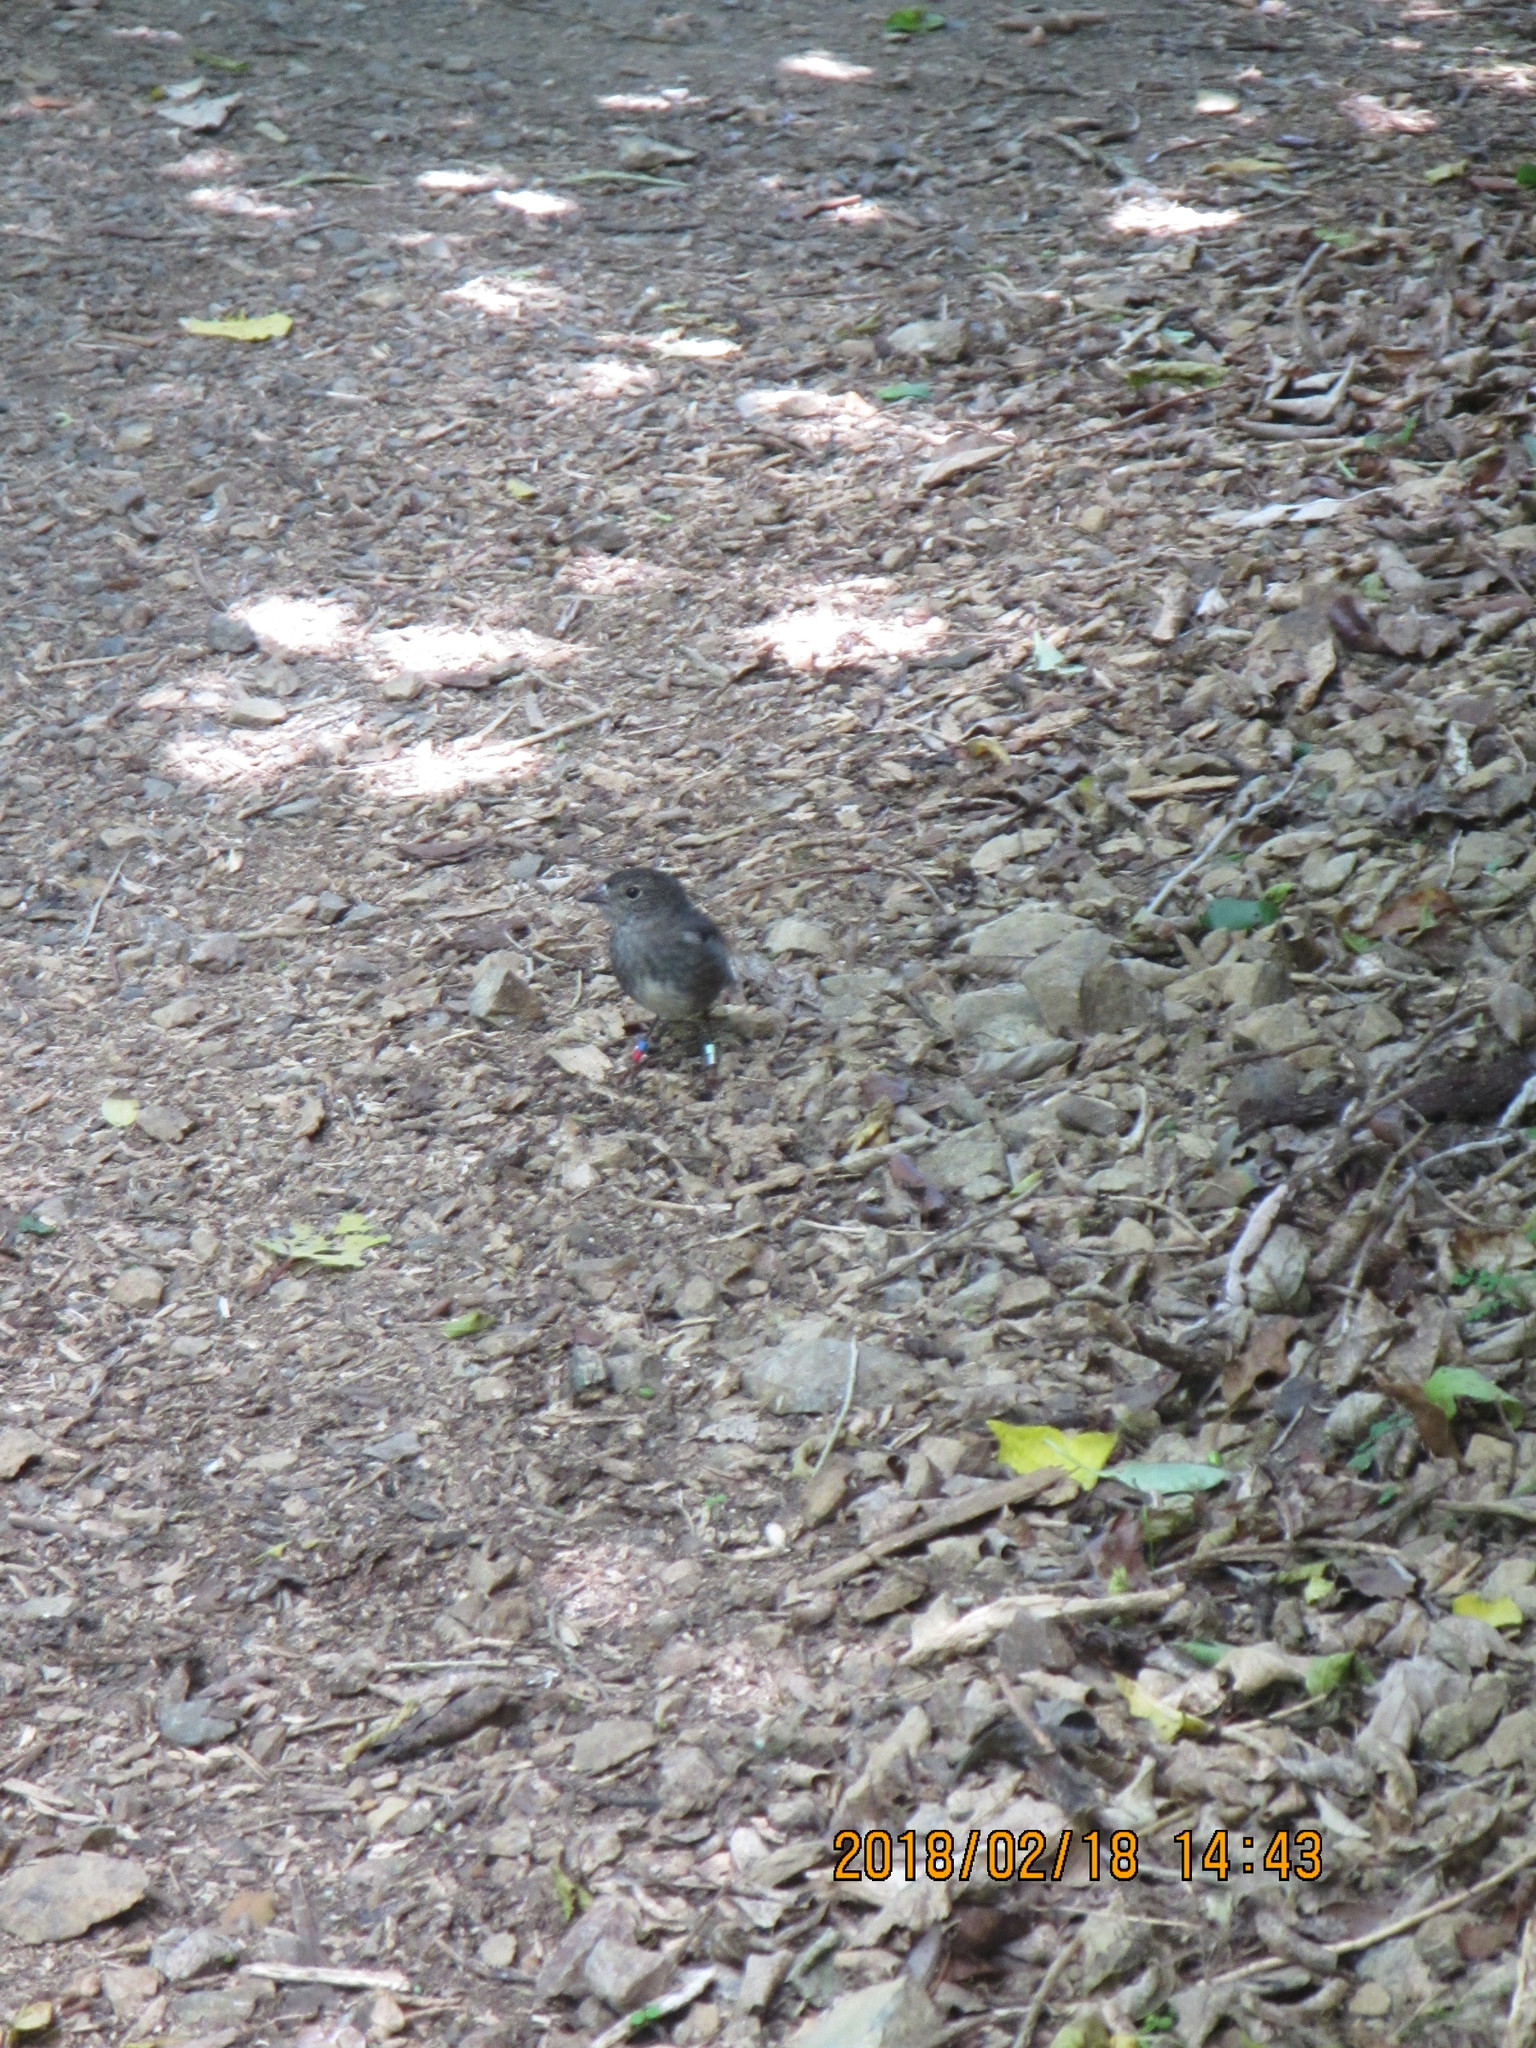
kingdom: Animalia
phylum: Chordata
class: Aves
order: Passeriformes
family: Petroicidae
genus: Petroica
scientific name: Petroica australis
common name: New zealand robin
